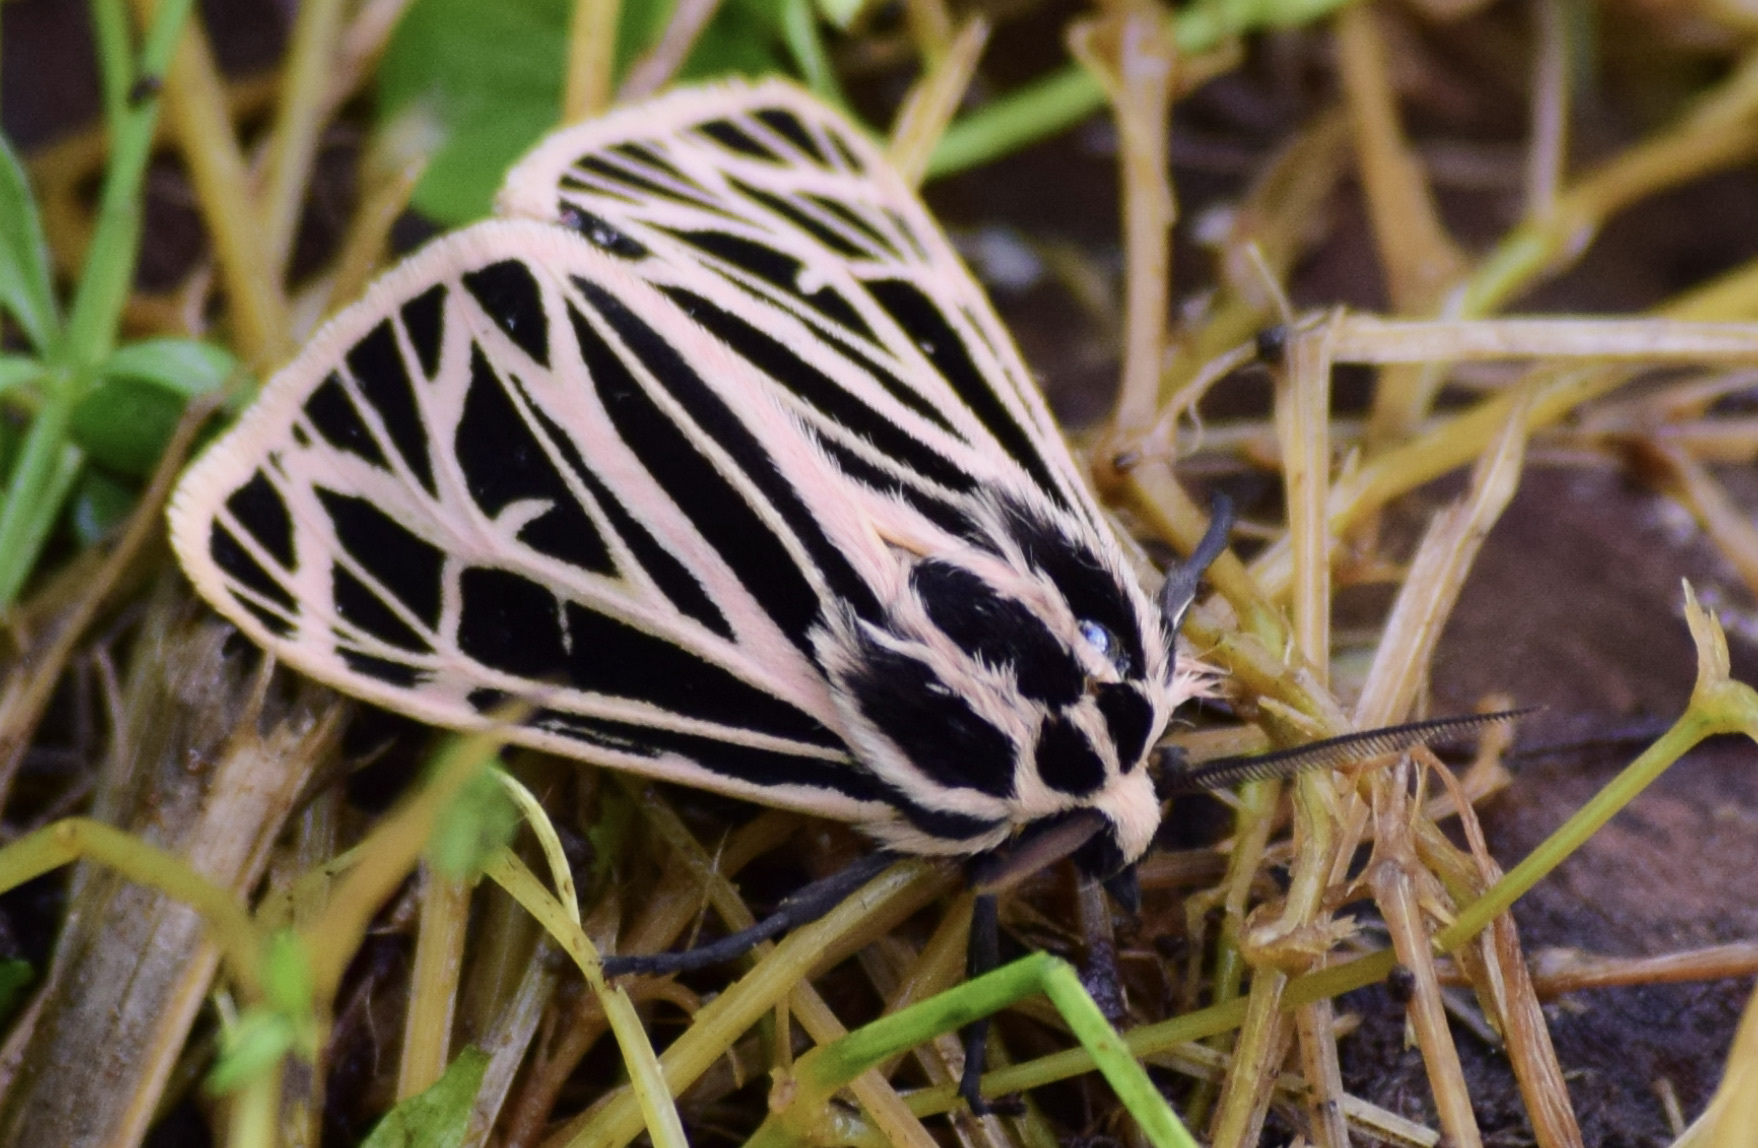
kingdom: Animalia
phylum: Arthropoda
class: Insecta
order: Lepidoptera
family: Erebidae
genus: Grammia
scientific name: Grammia virgo
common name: Virgin tiger moth
